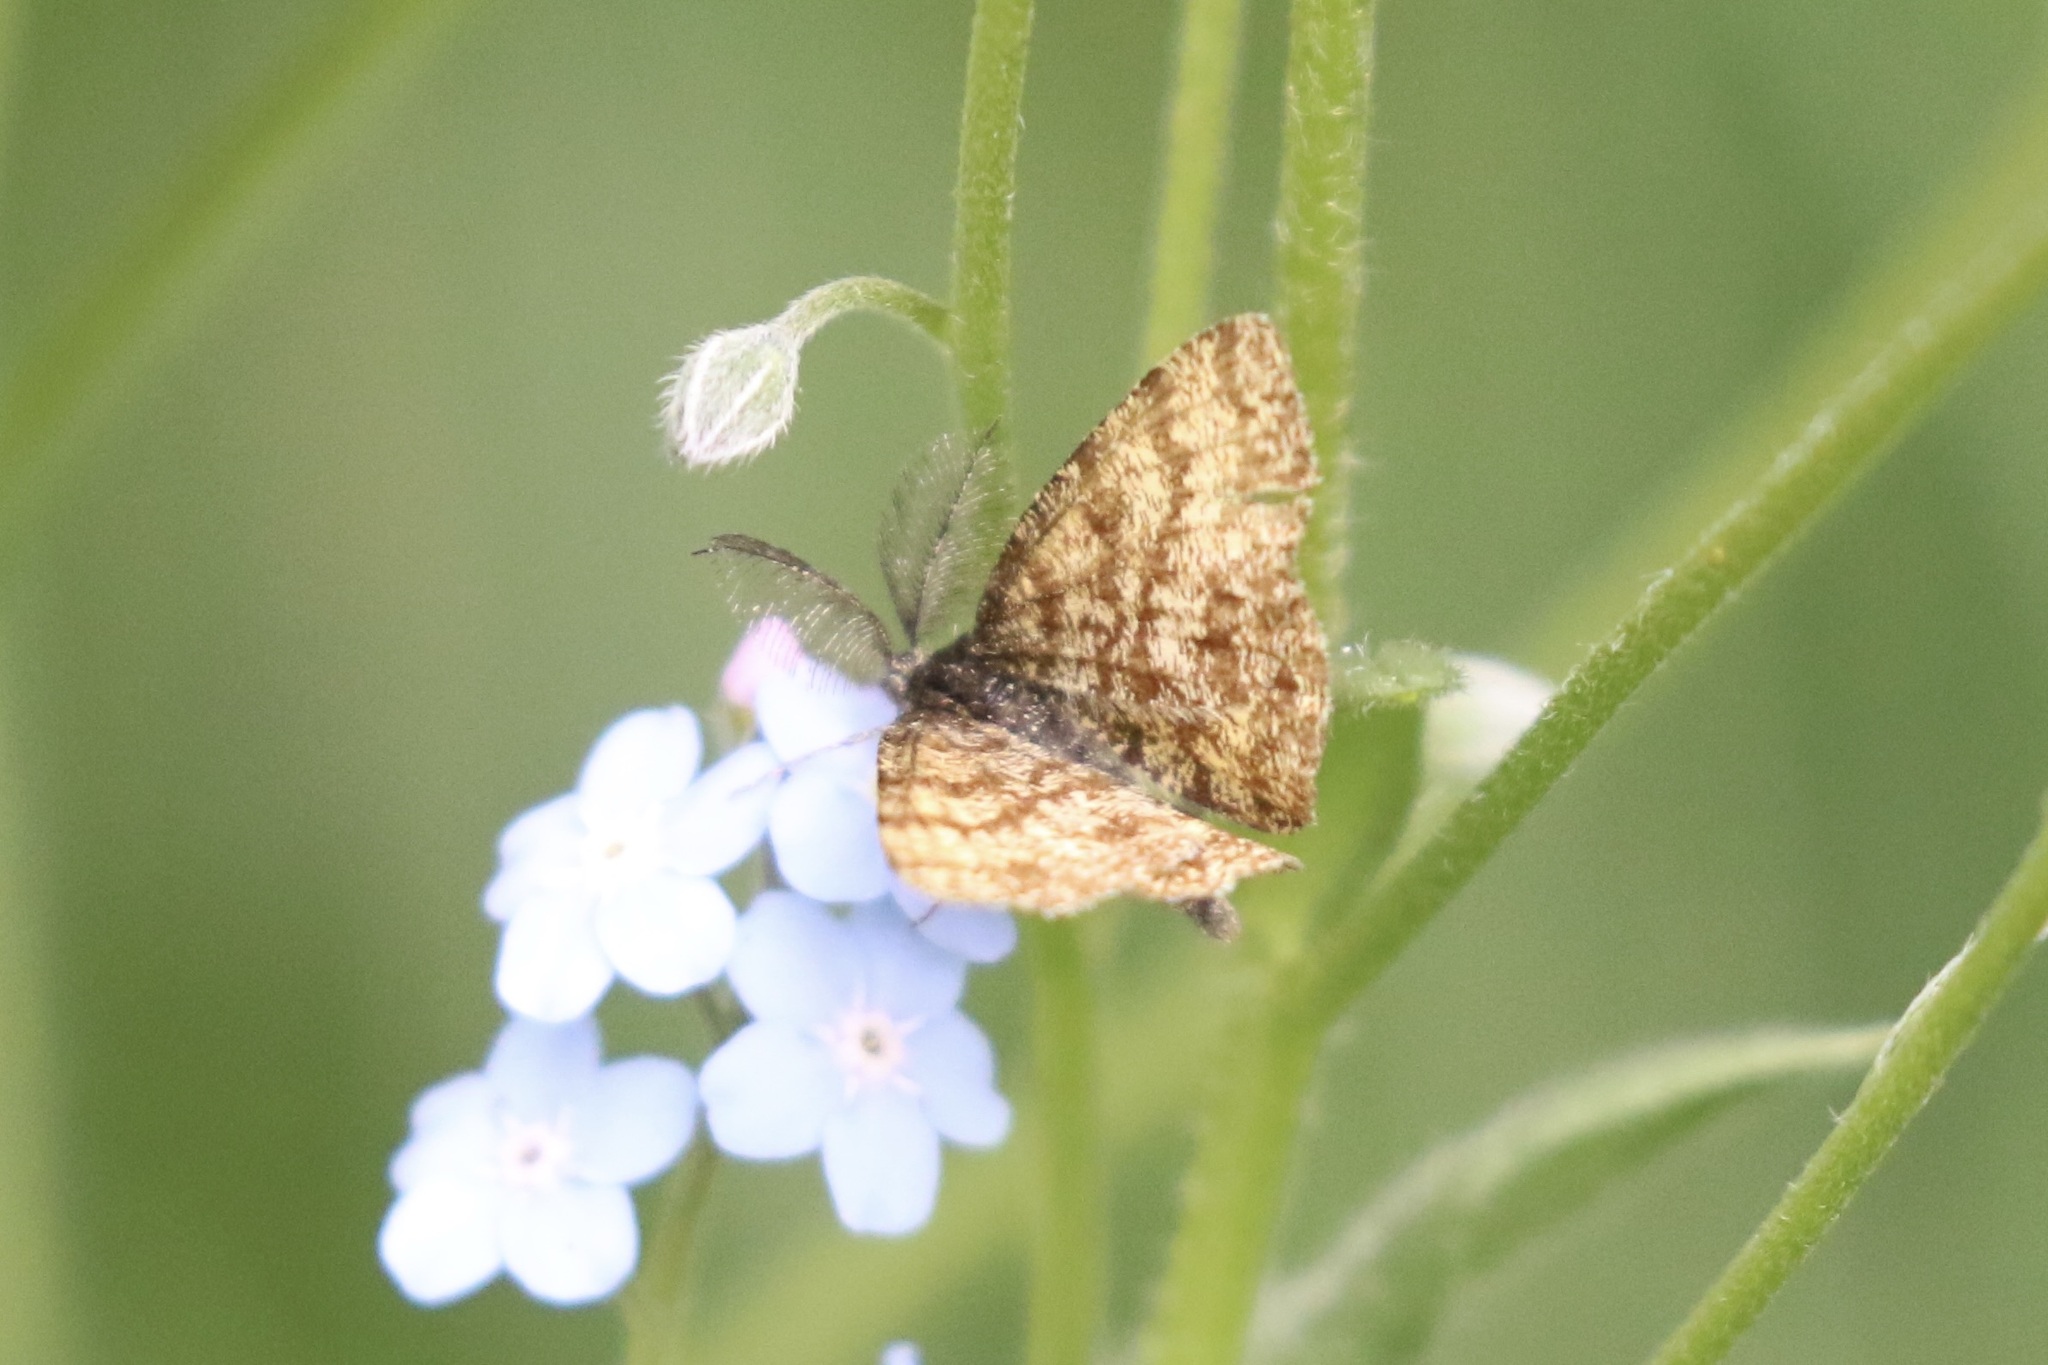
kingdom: Animalia
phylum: Arthropoda
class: Insecta
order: Lepidoptera
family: Geometridae
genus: Ematurga
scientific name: Ematurga atomaria
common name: Common heath
